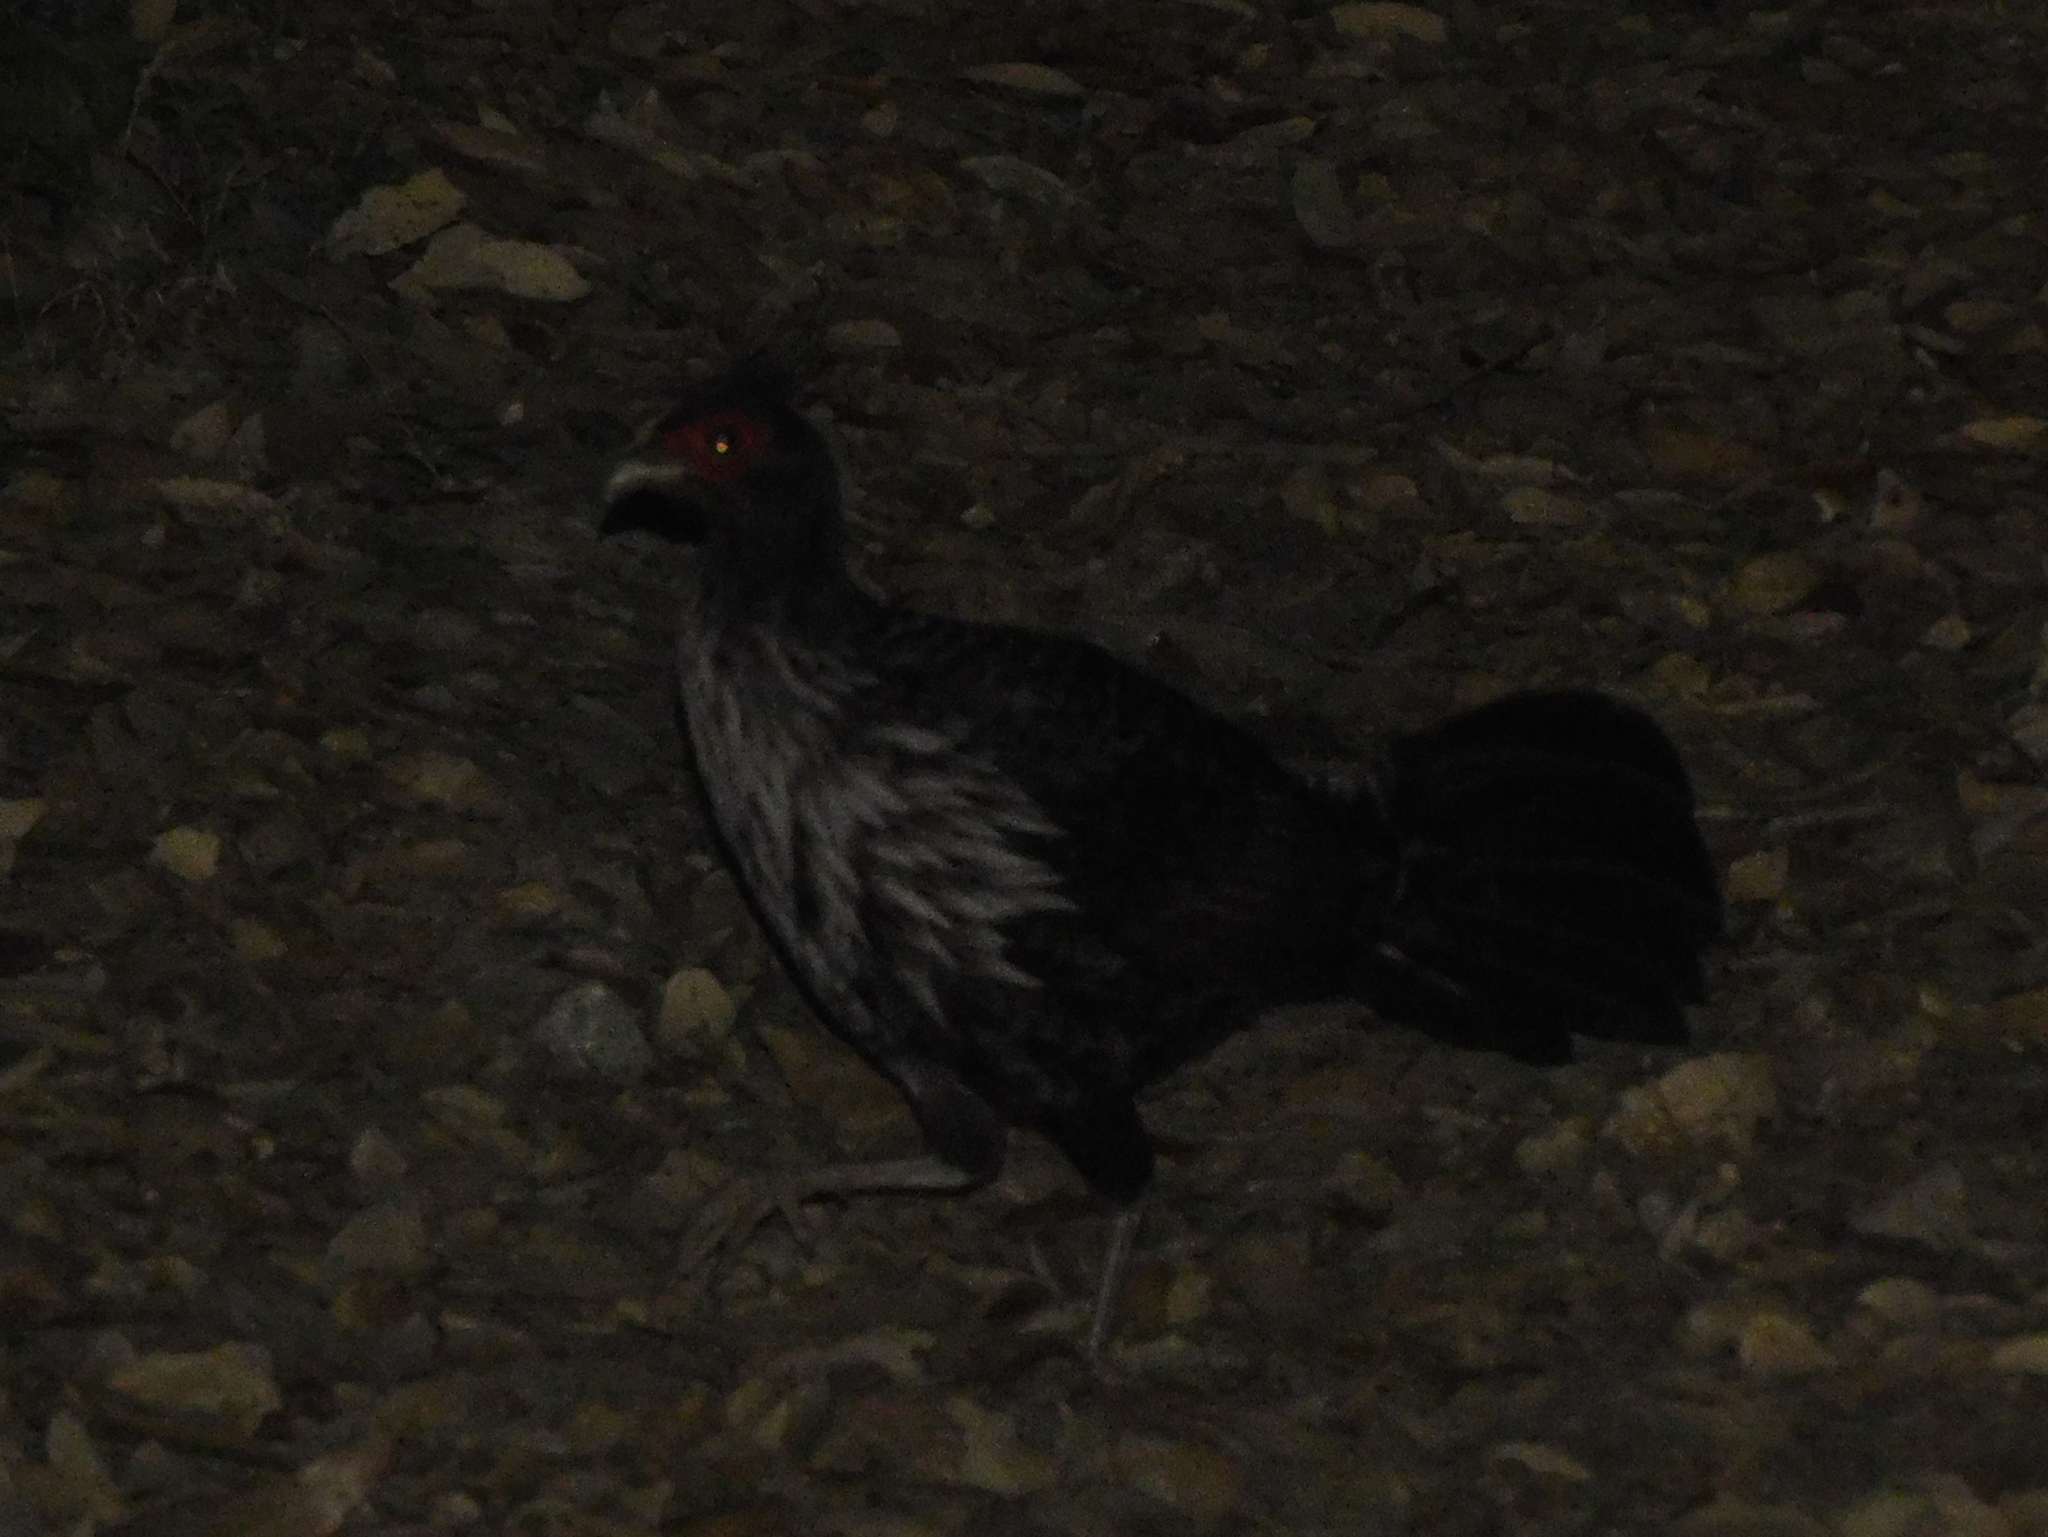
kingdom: Animalia
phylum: Chordata
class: Aves
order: Galliformes
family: Phasianidae
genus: Lophura
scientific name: Lophura leucomelanos
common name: Kalij pheasant
